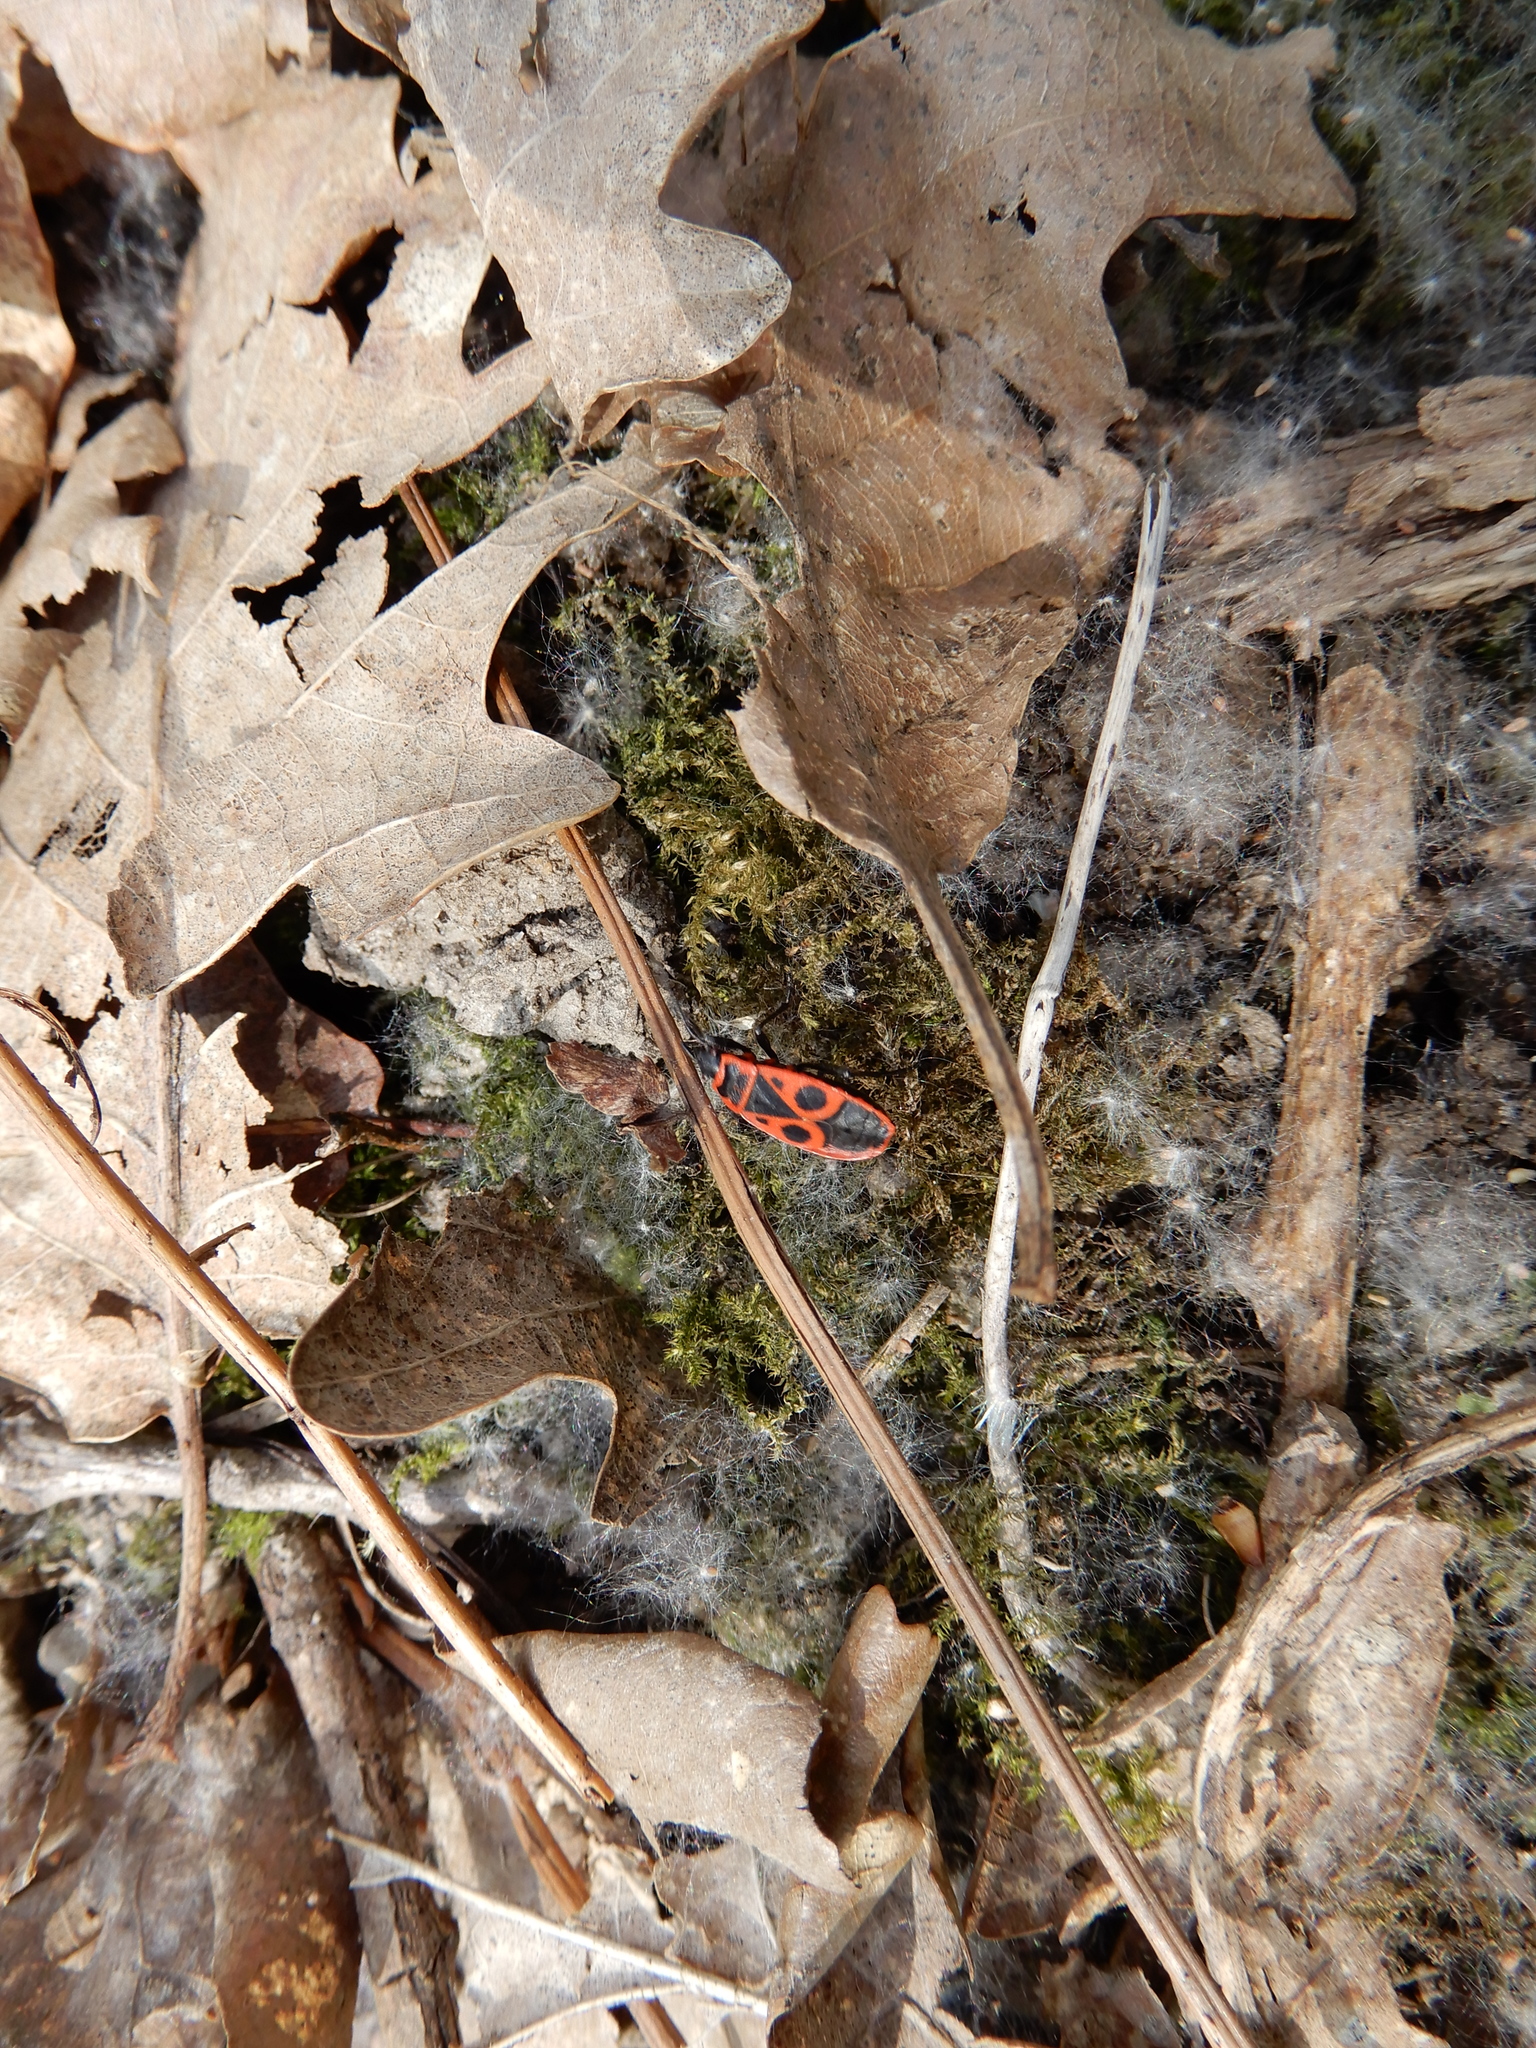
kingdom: Animalia
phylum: Arthropoda
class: Insecta
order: Hemiptera
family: Pyrrhocoridae
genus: Pyrrhocoris
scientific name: Pyrrhocoris apterus
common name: Firebug
